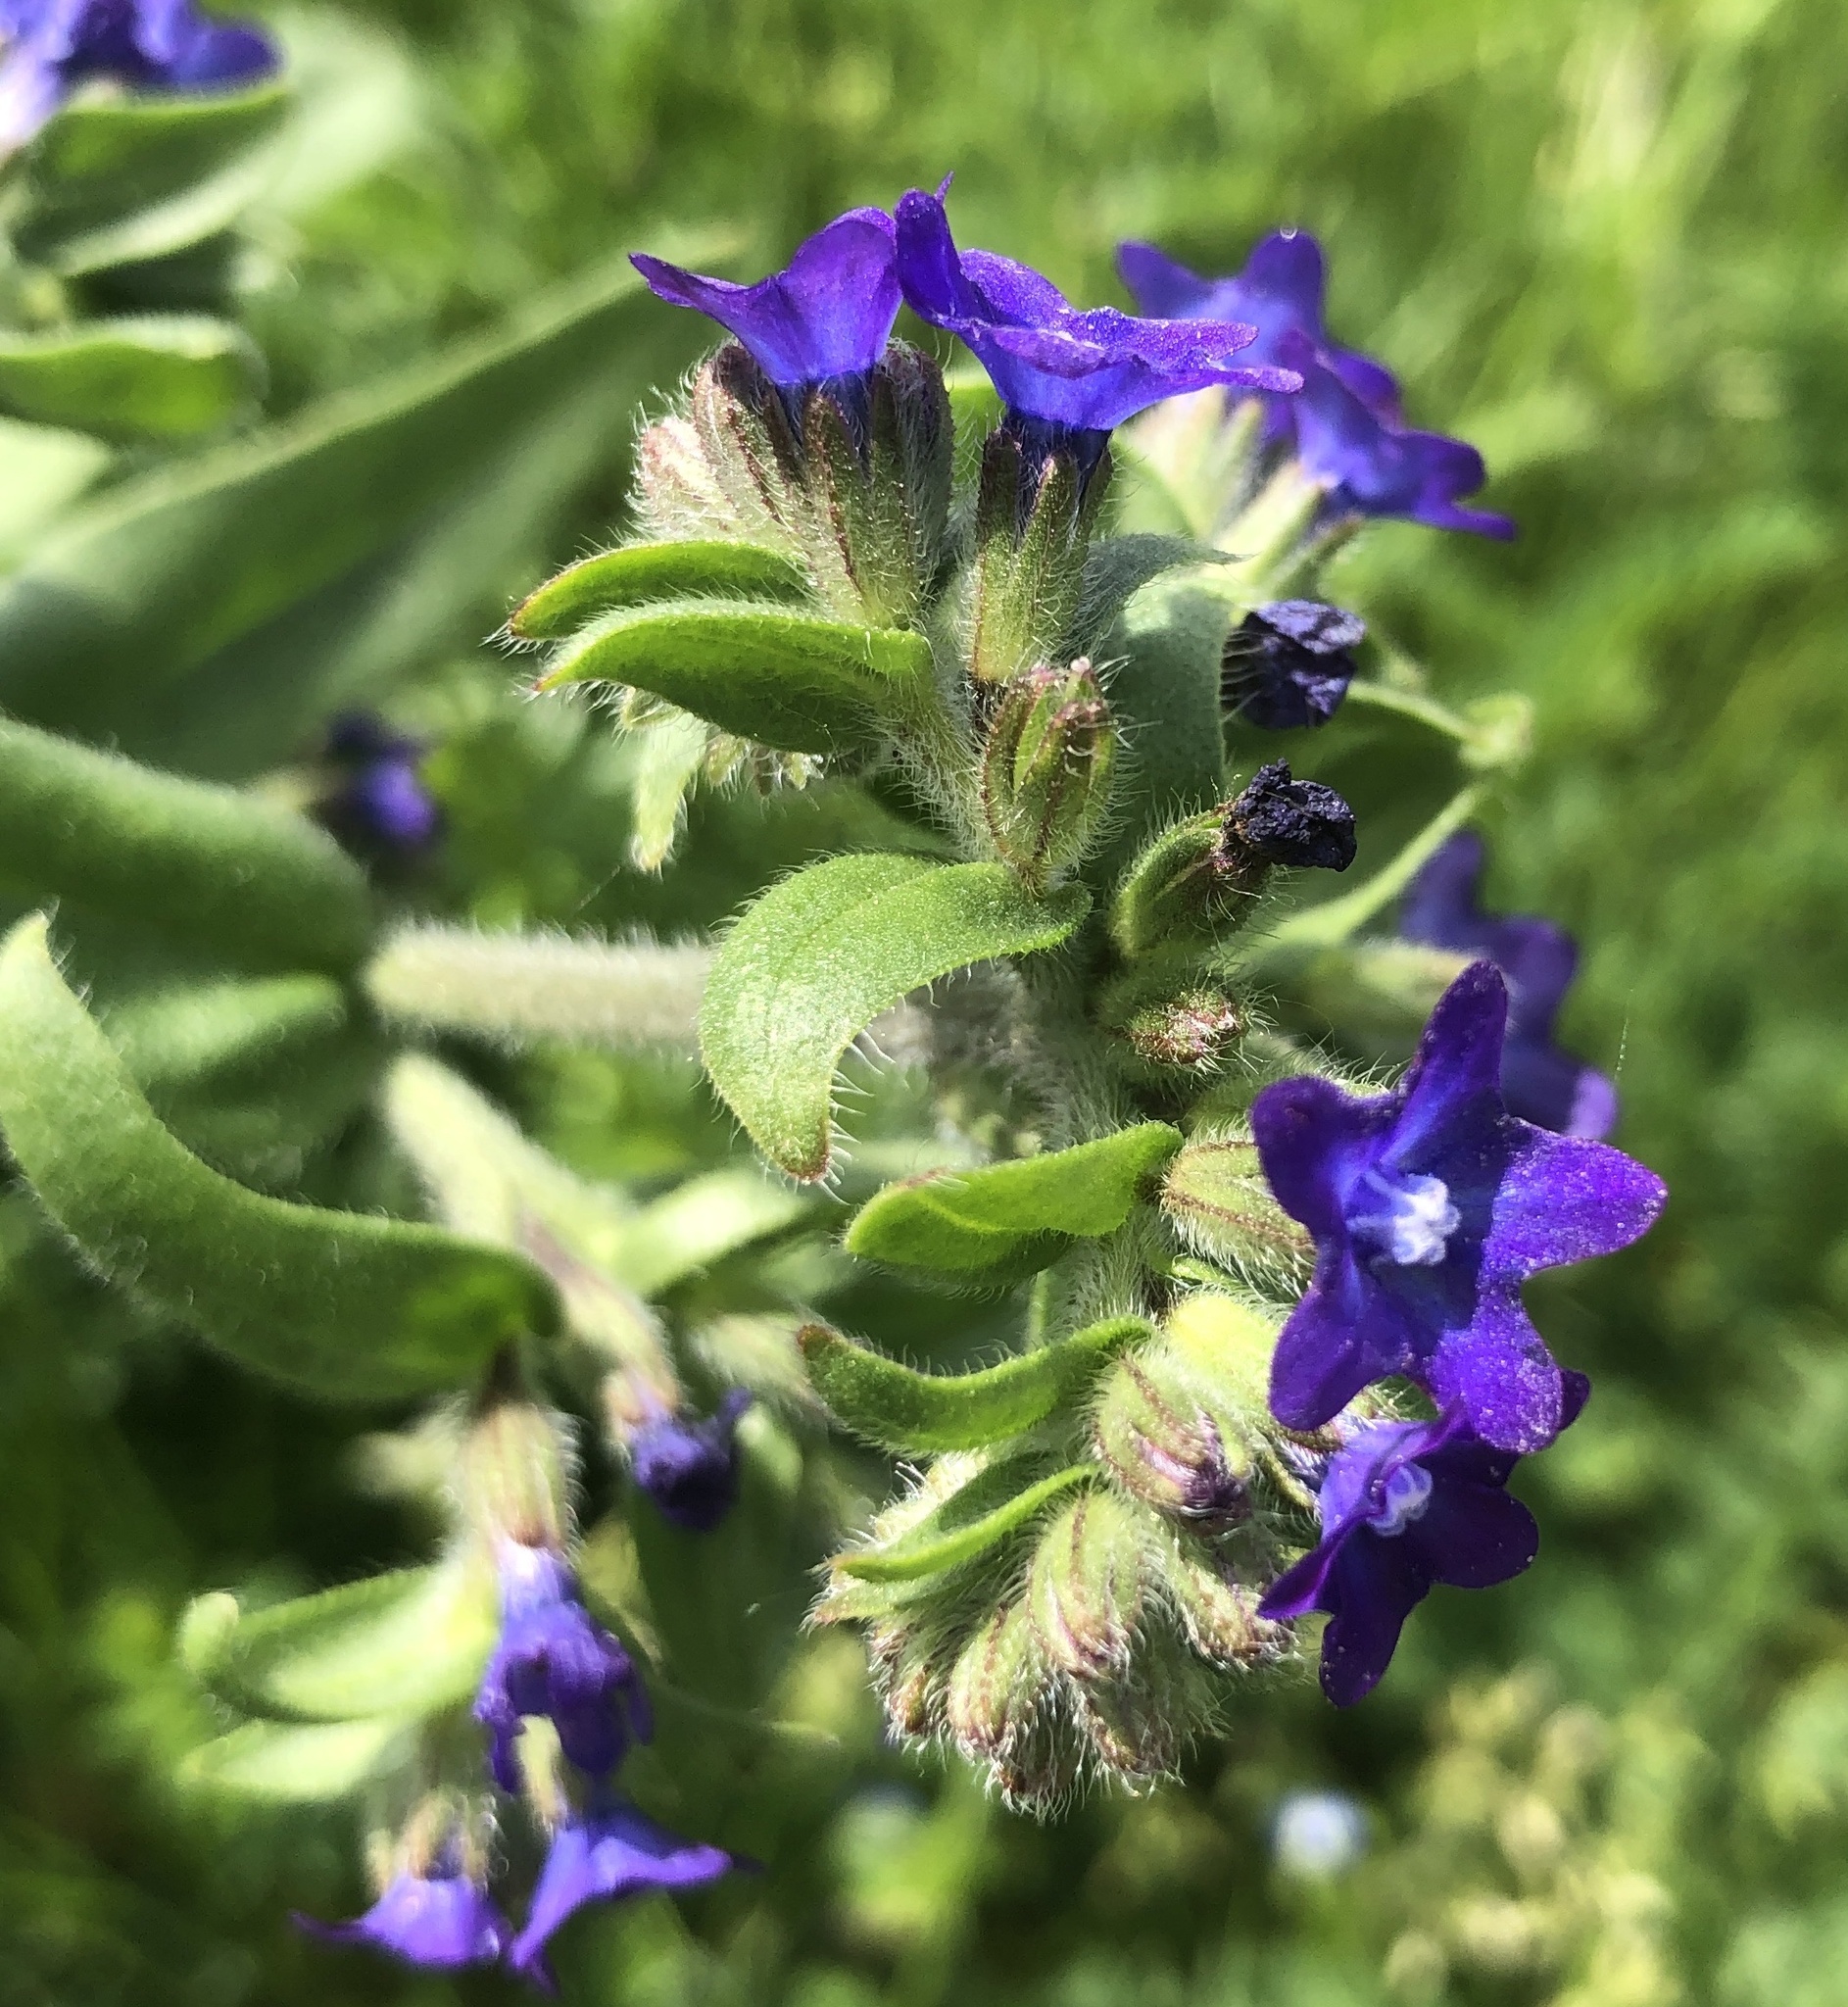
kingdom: Plantae
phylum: Tracheophyta
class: Magnoliopsida
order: Boraginales
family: Boraginaceae
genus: Anchusa
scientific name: Anchusa officinalis
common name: Alkanet
